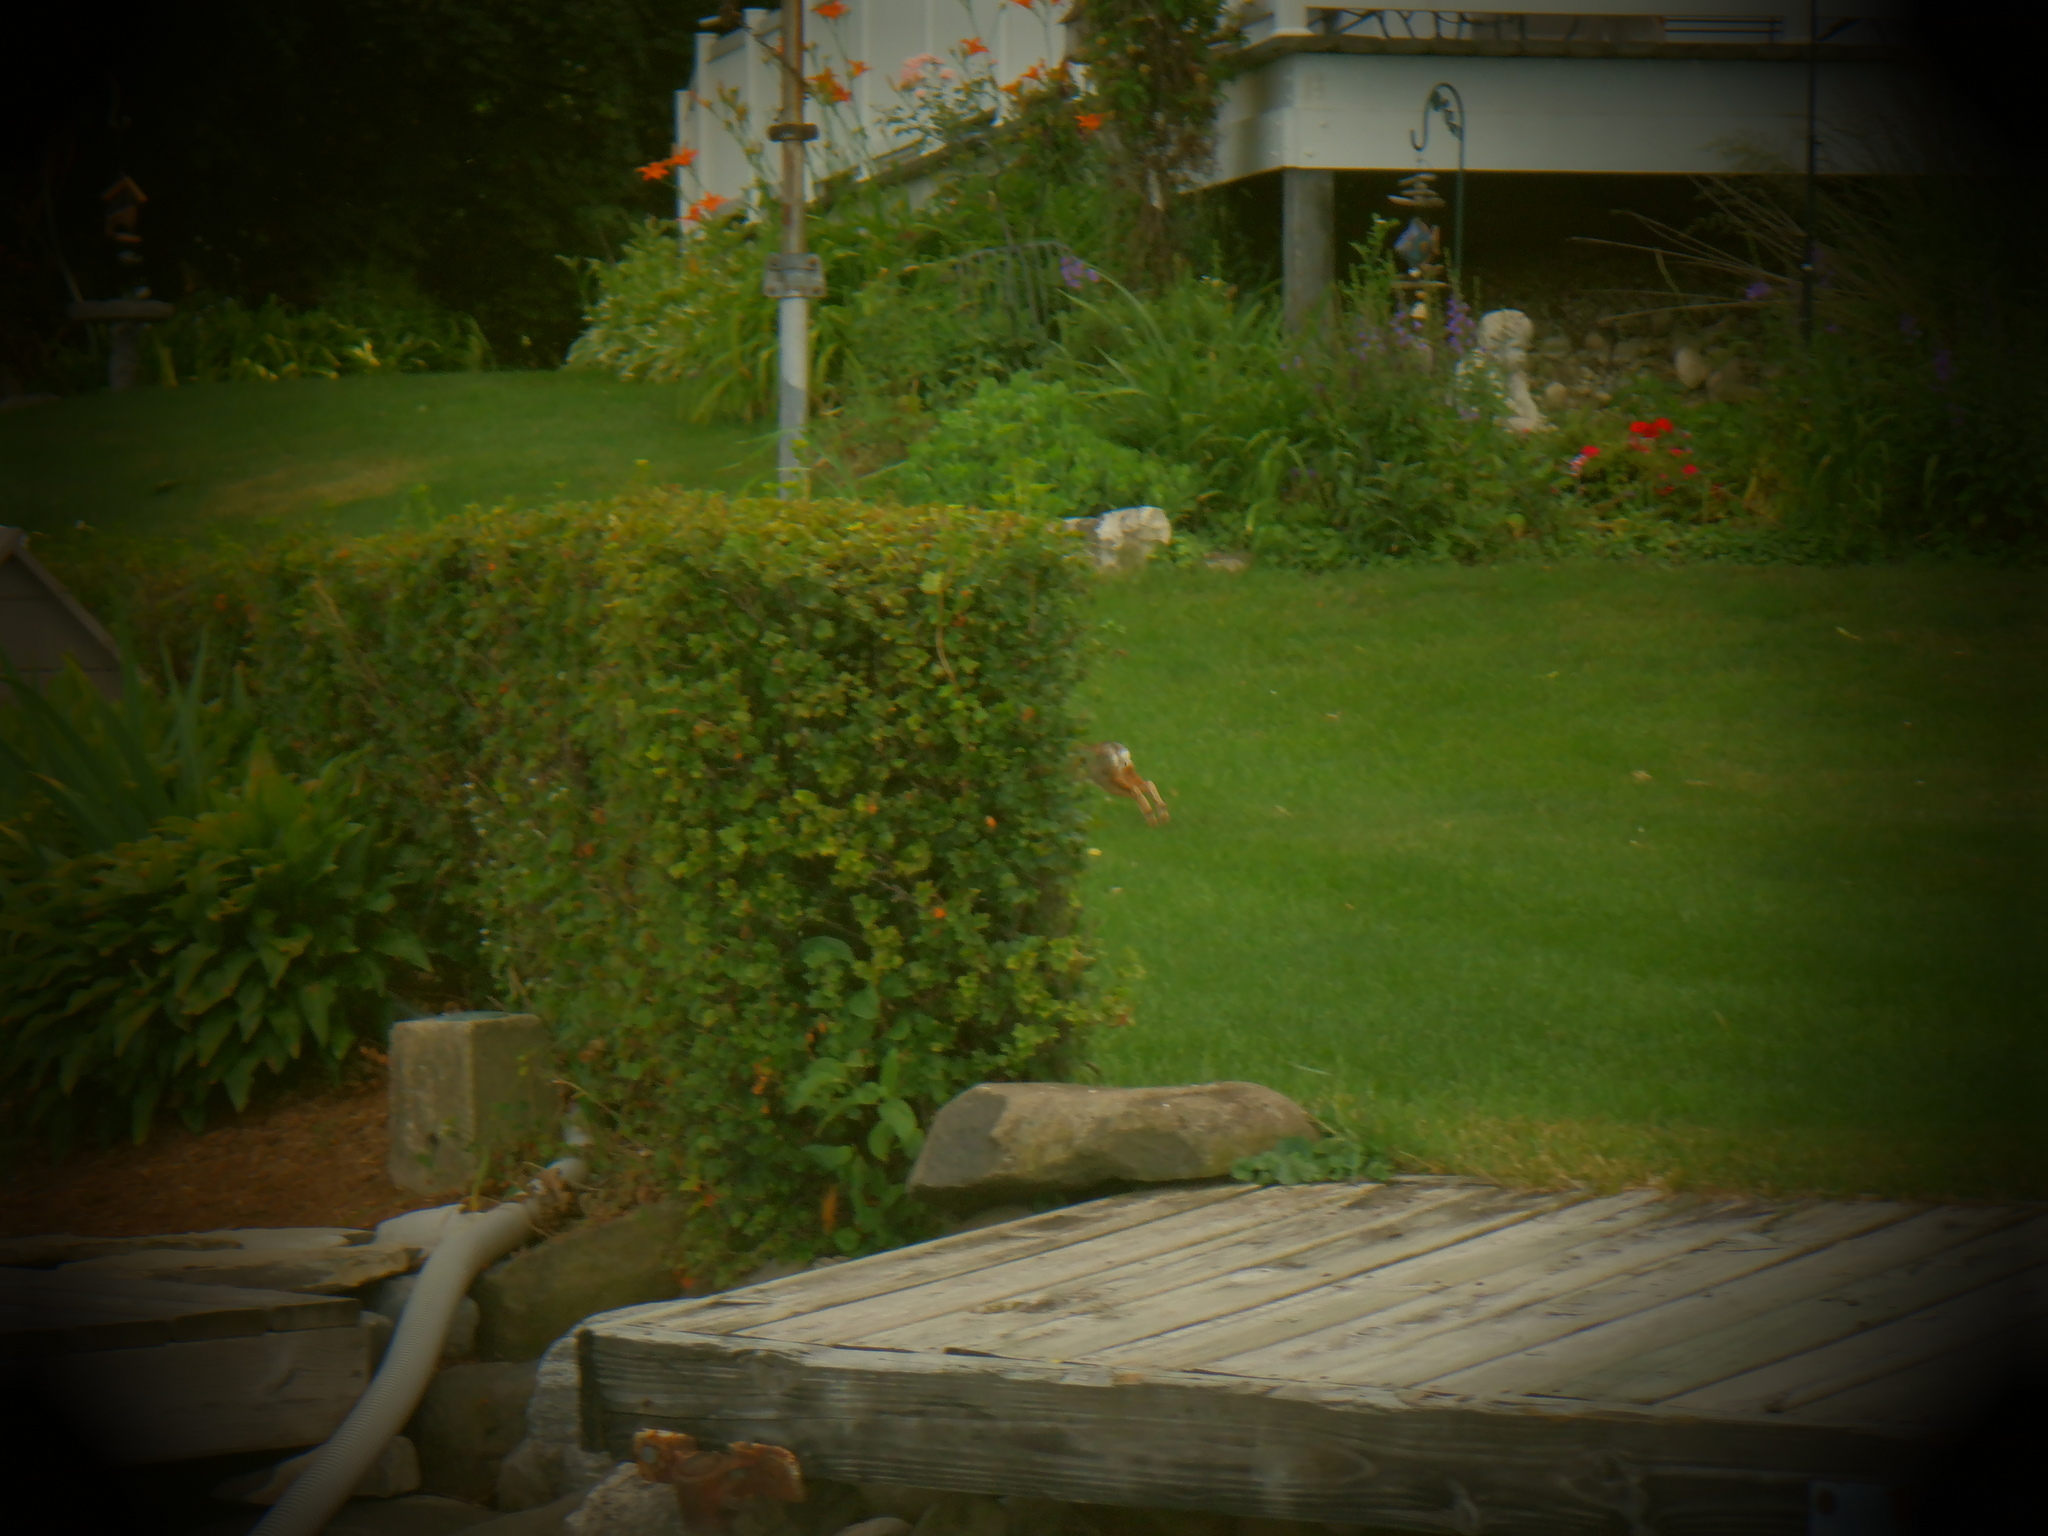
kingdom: Animalia
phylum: Chordata
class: Mammalia
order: Lagomorpha
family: Leporidae
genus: Sylvilagus
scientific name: Sylvilagus floridanus
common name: Eastern cottontail
